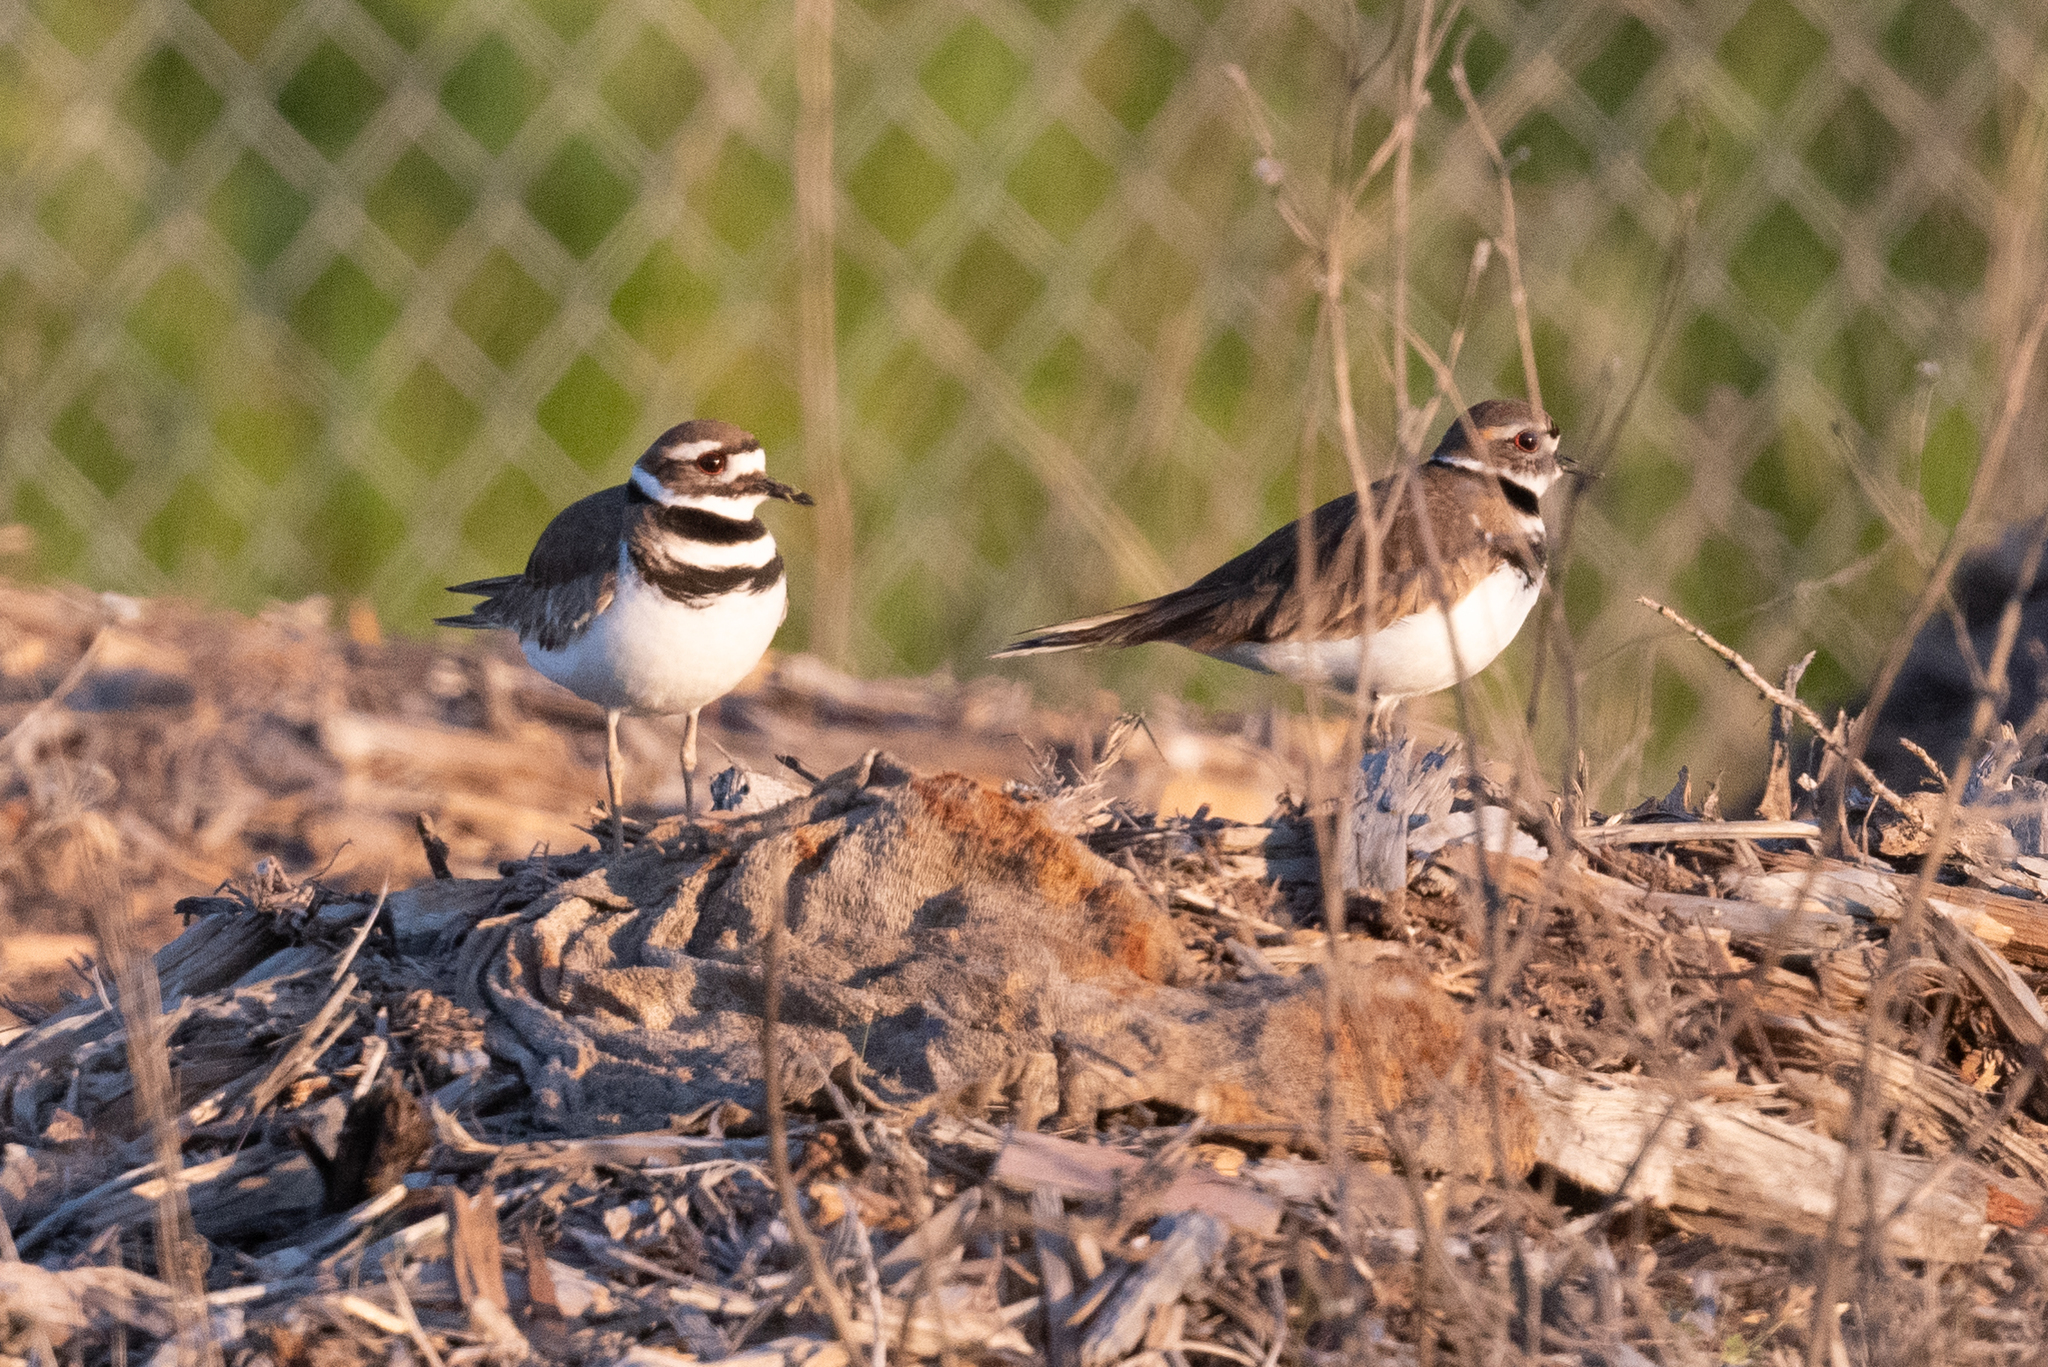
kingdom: Animalia
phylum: Chordata
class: Aves
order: Charadriiformes
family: Charadriidae
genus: Charadrius
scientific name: Charadrius vociferus
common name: Killdeer
